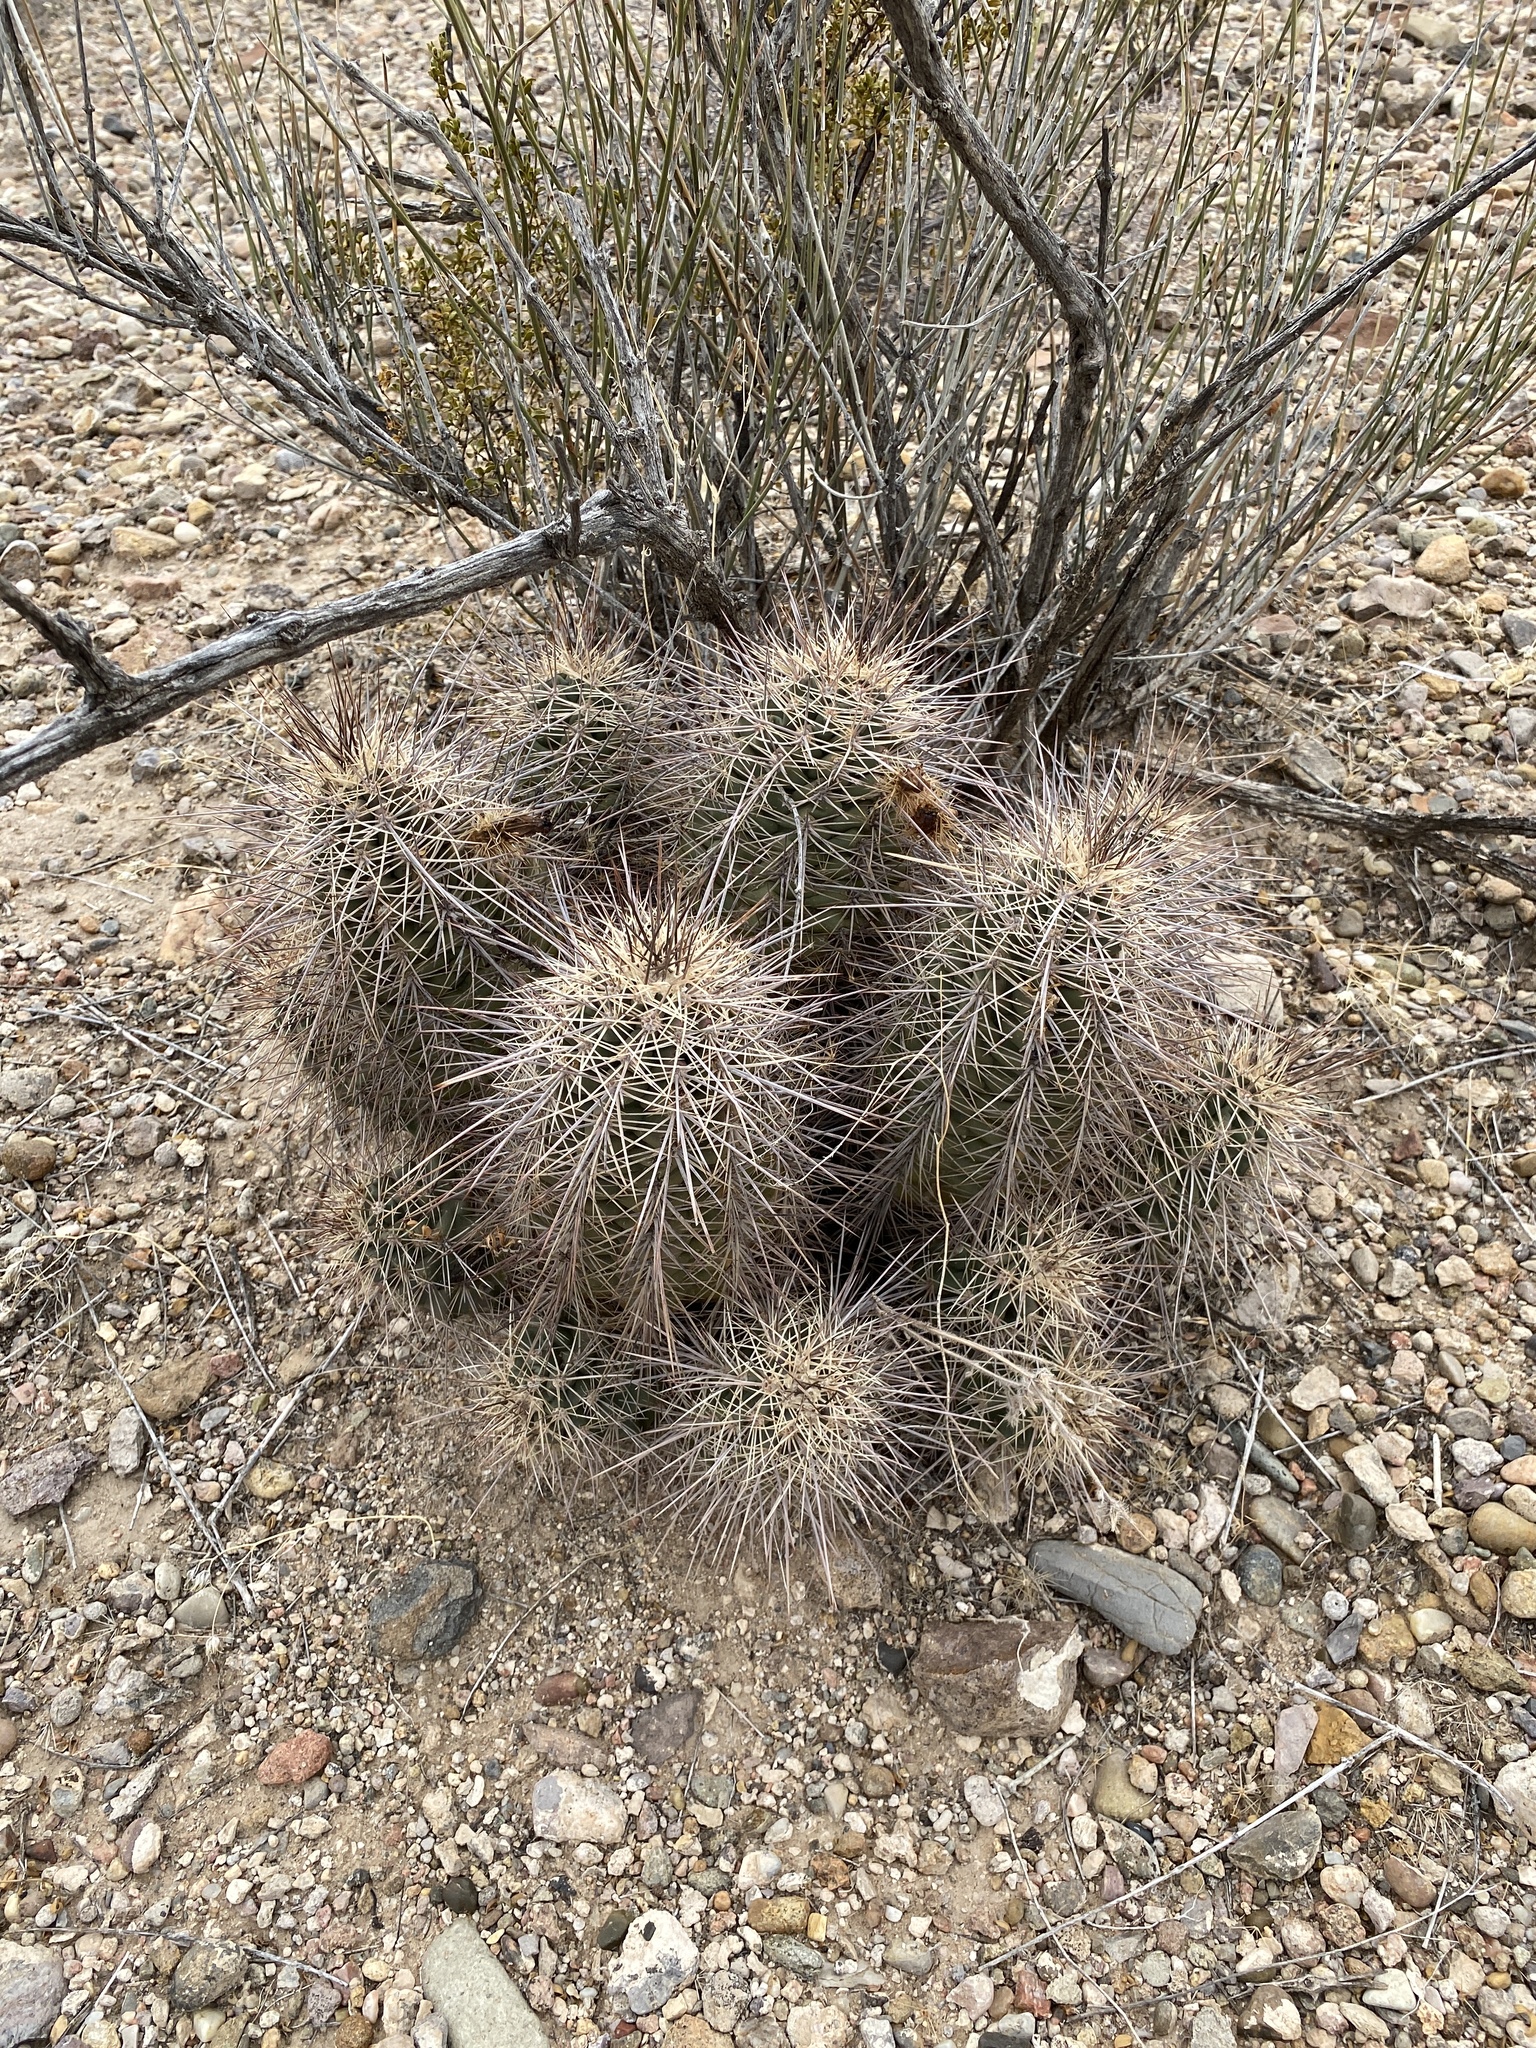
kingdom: Plantae
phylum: Tracheophyta
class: Magnoliopsida
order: Caryophyllales
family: Cactaceae
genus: Echinocereus
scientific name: Echinocereus coccineus
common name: Scarlet hedgehog cactus
